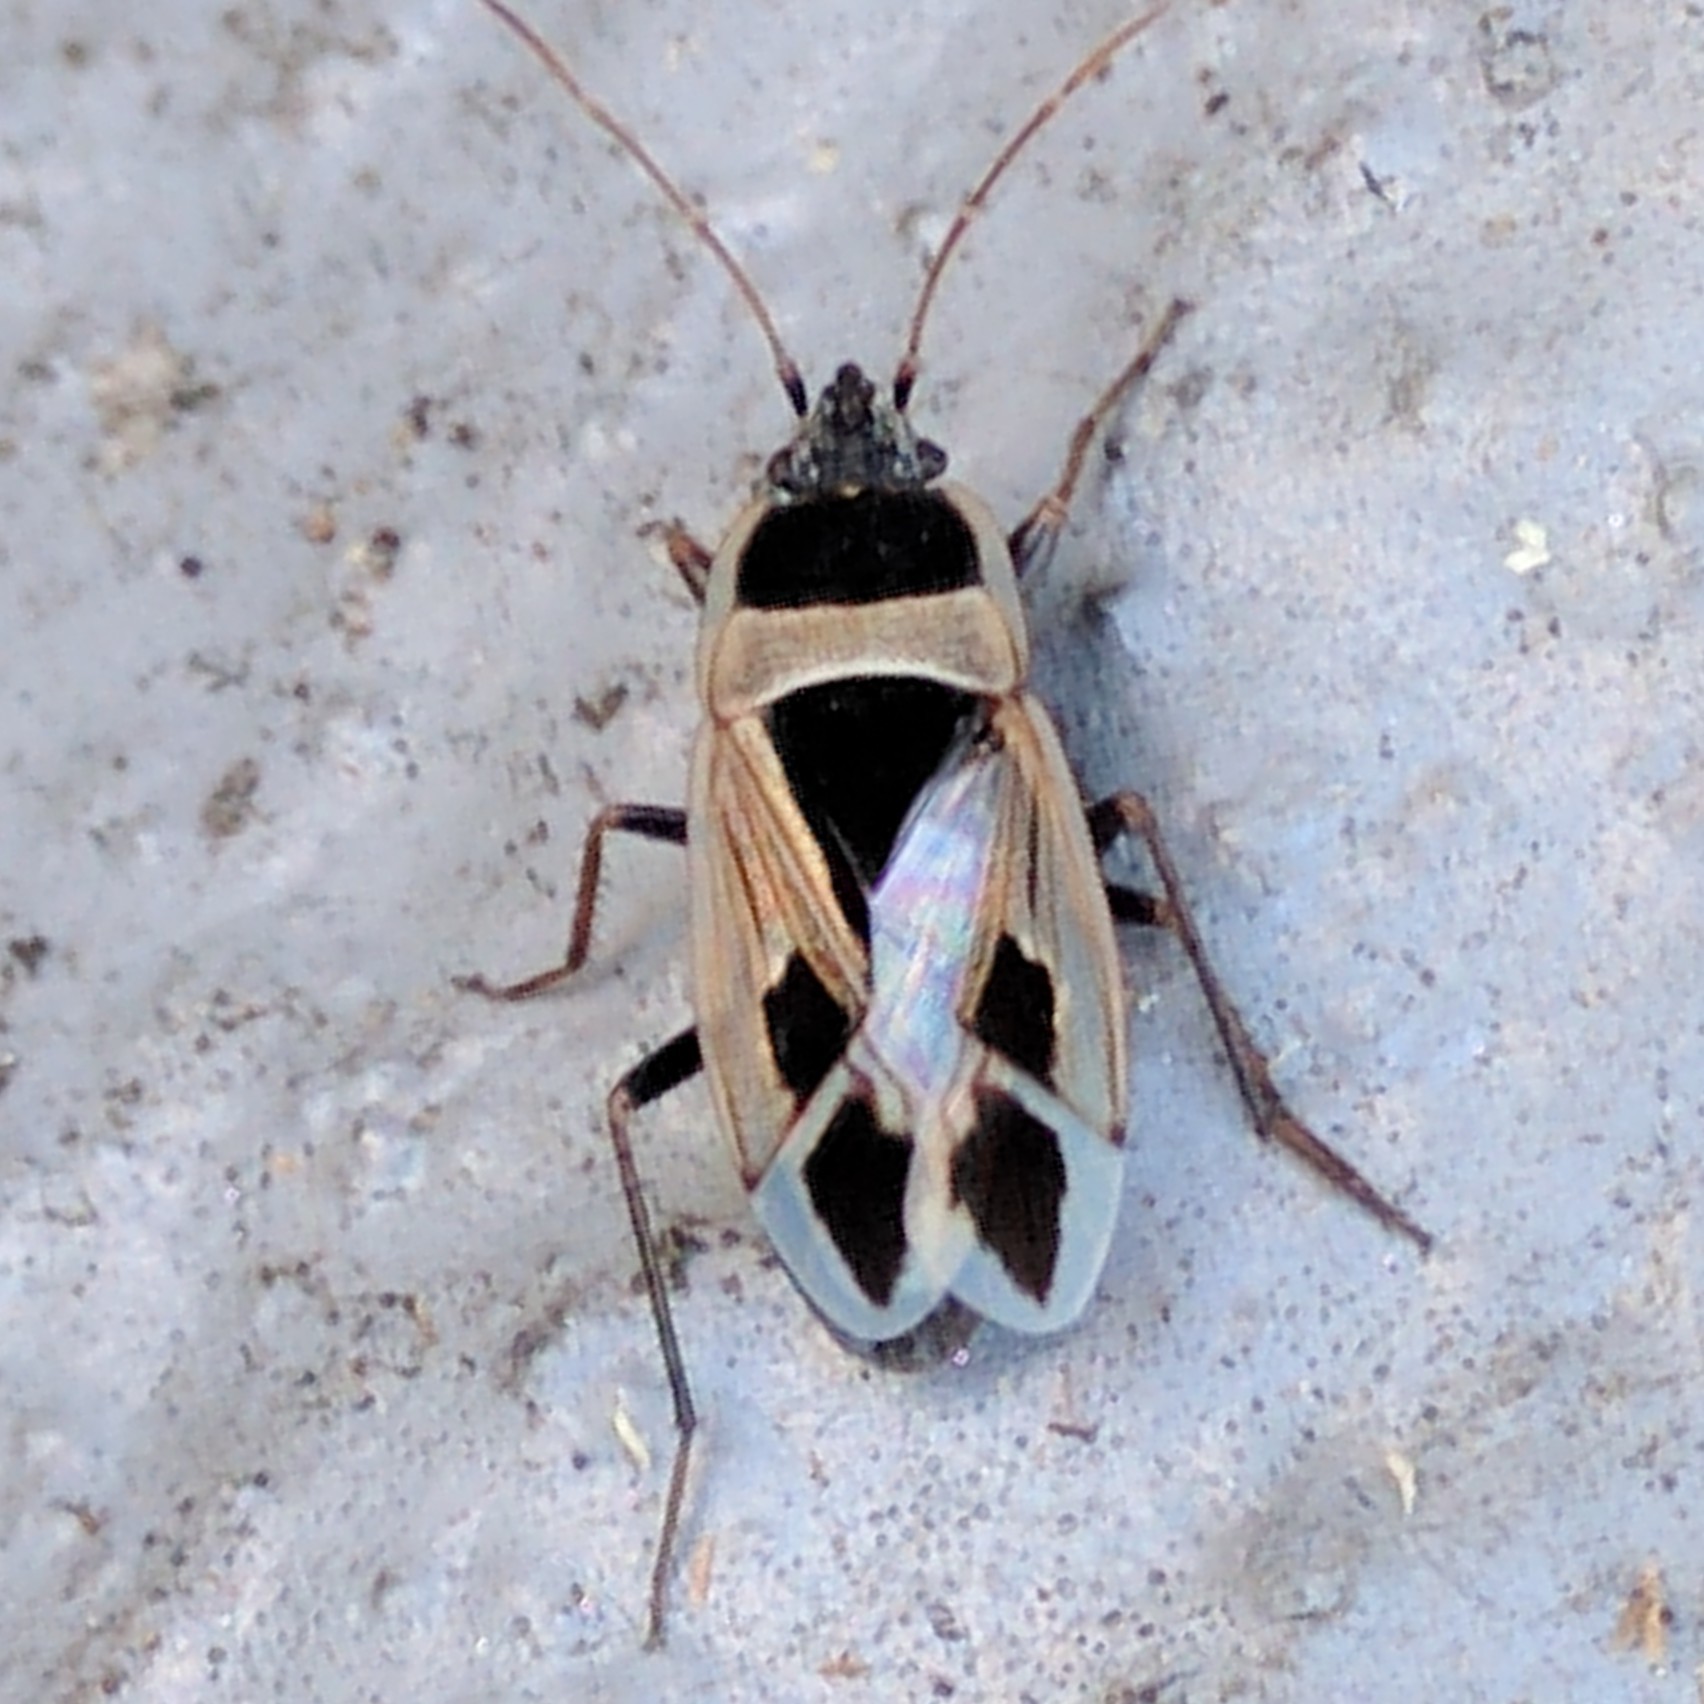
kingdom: Animalia
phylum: Arthropoda
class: Insecta
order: Hemiptera
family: Rhyparochromidae
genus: Xanthochilus
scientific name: Xanthochilus saturnius
